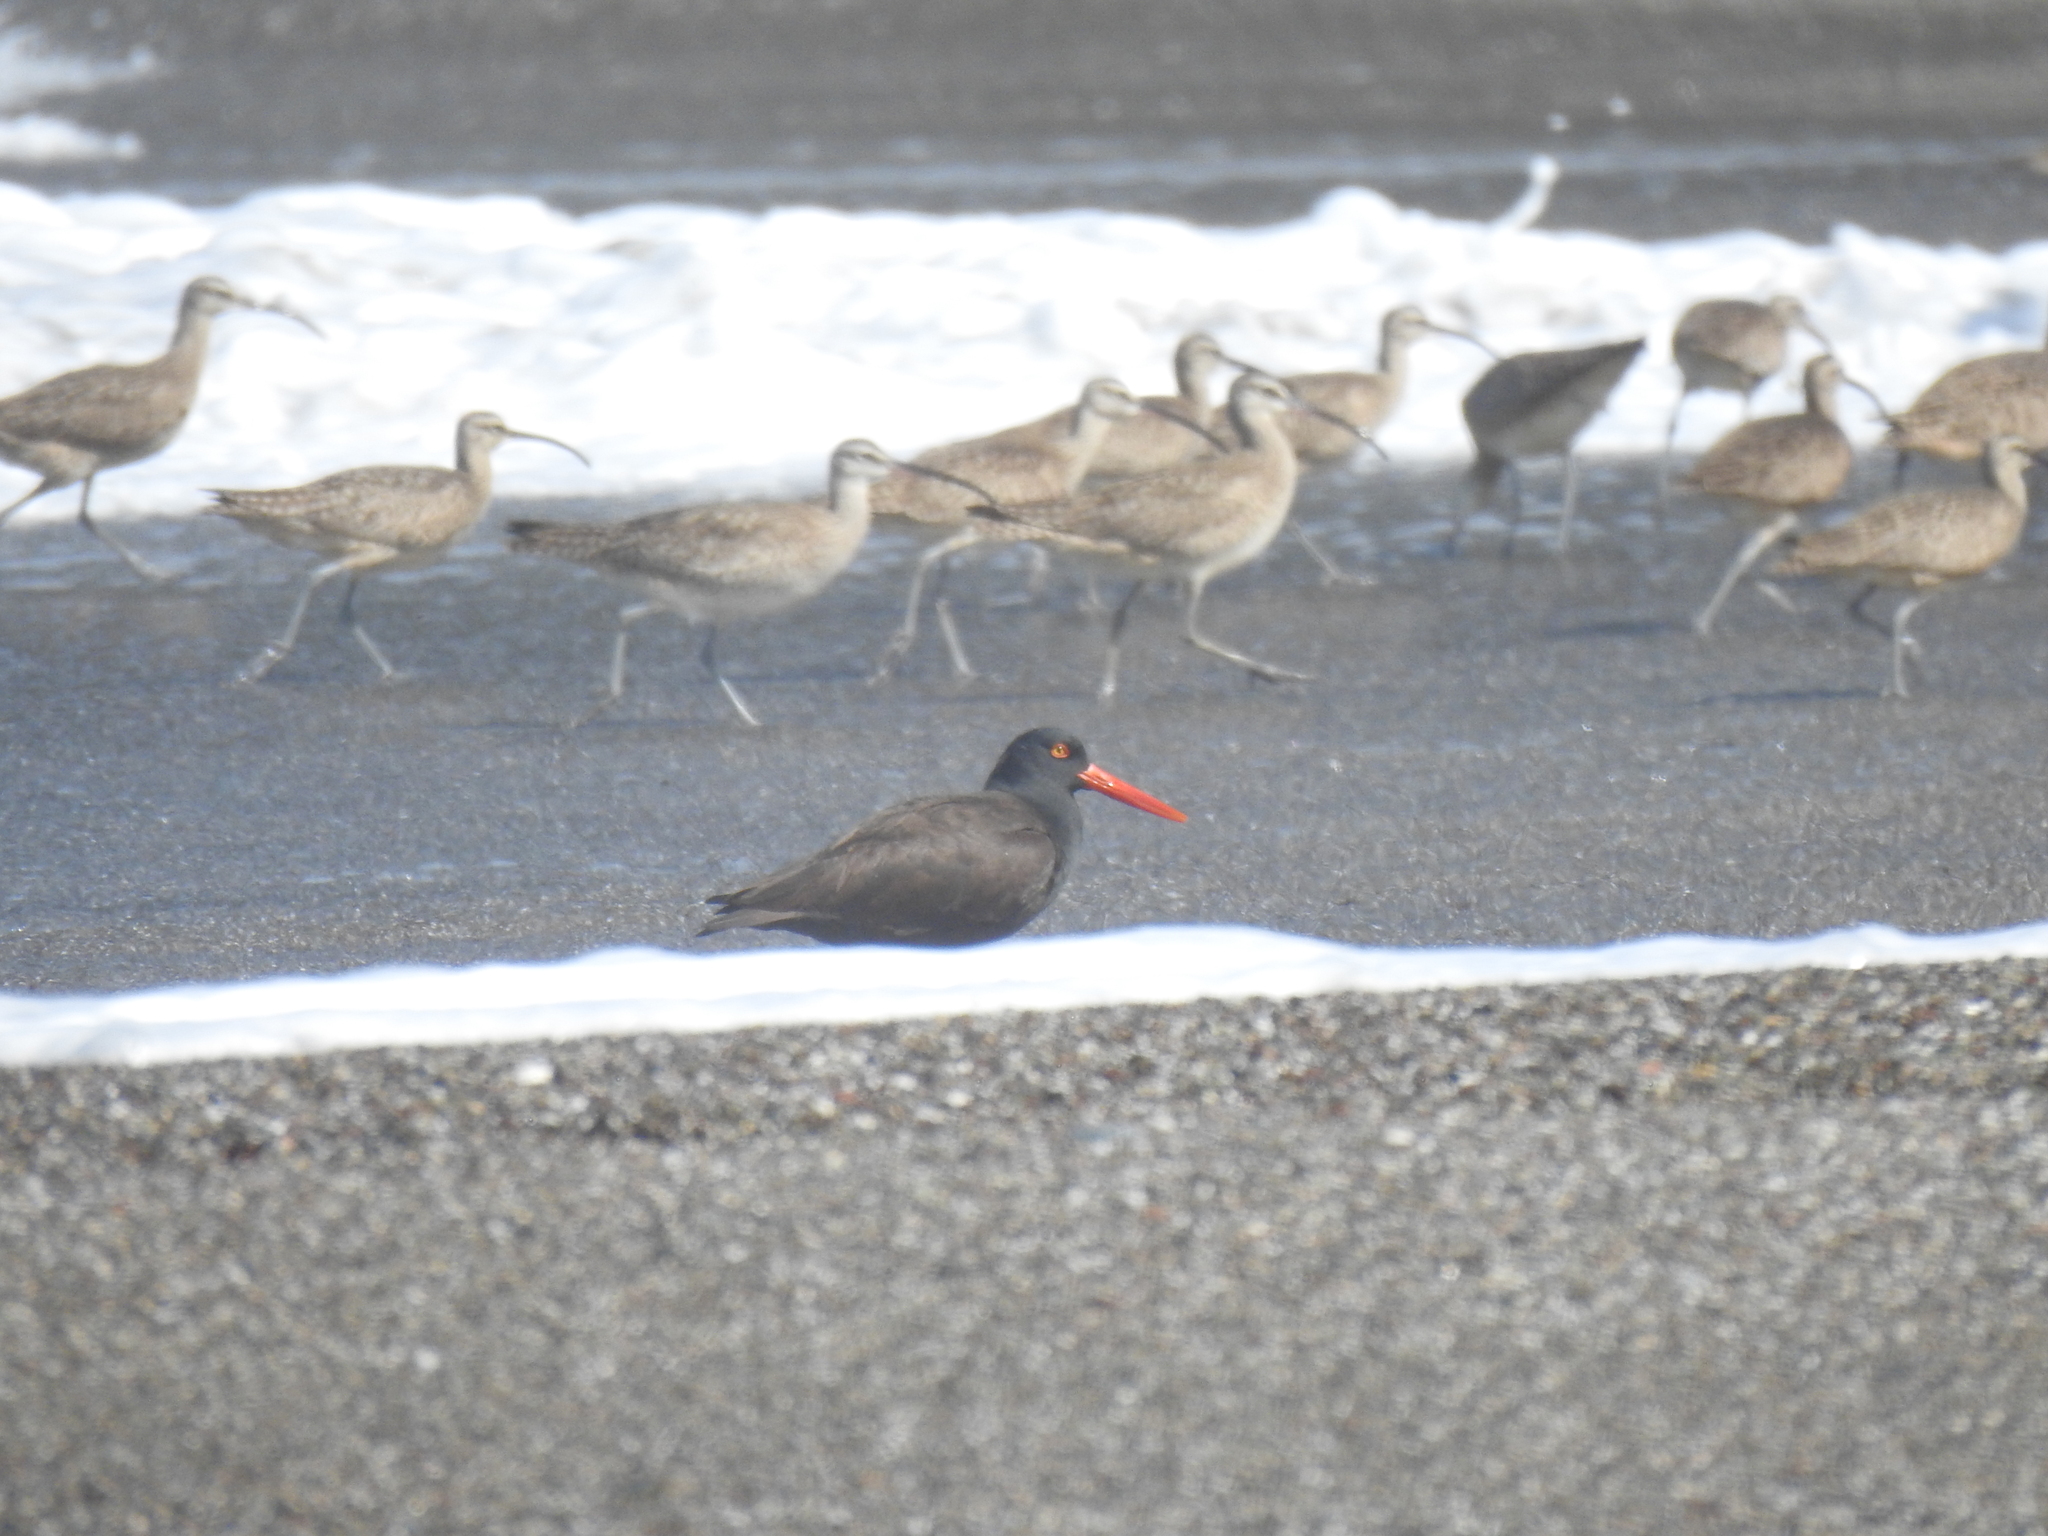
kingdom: Animalia
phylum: Chordata
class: Aves
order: Charadriiformes
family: Haematopodidae
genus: Haematopus
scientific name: Haematopus bachmani
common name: Black oystercatcher
